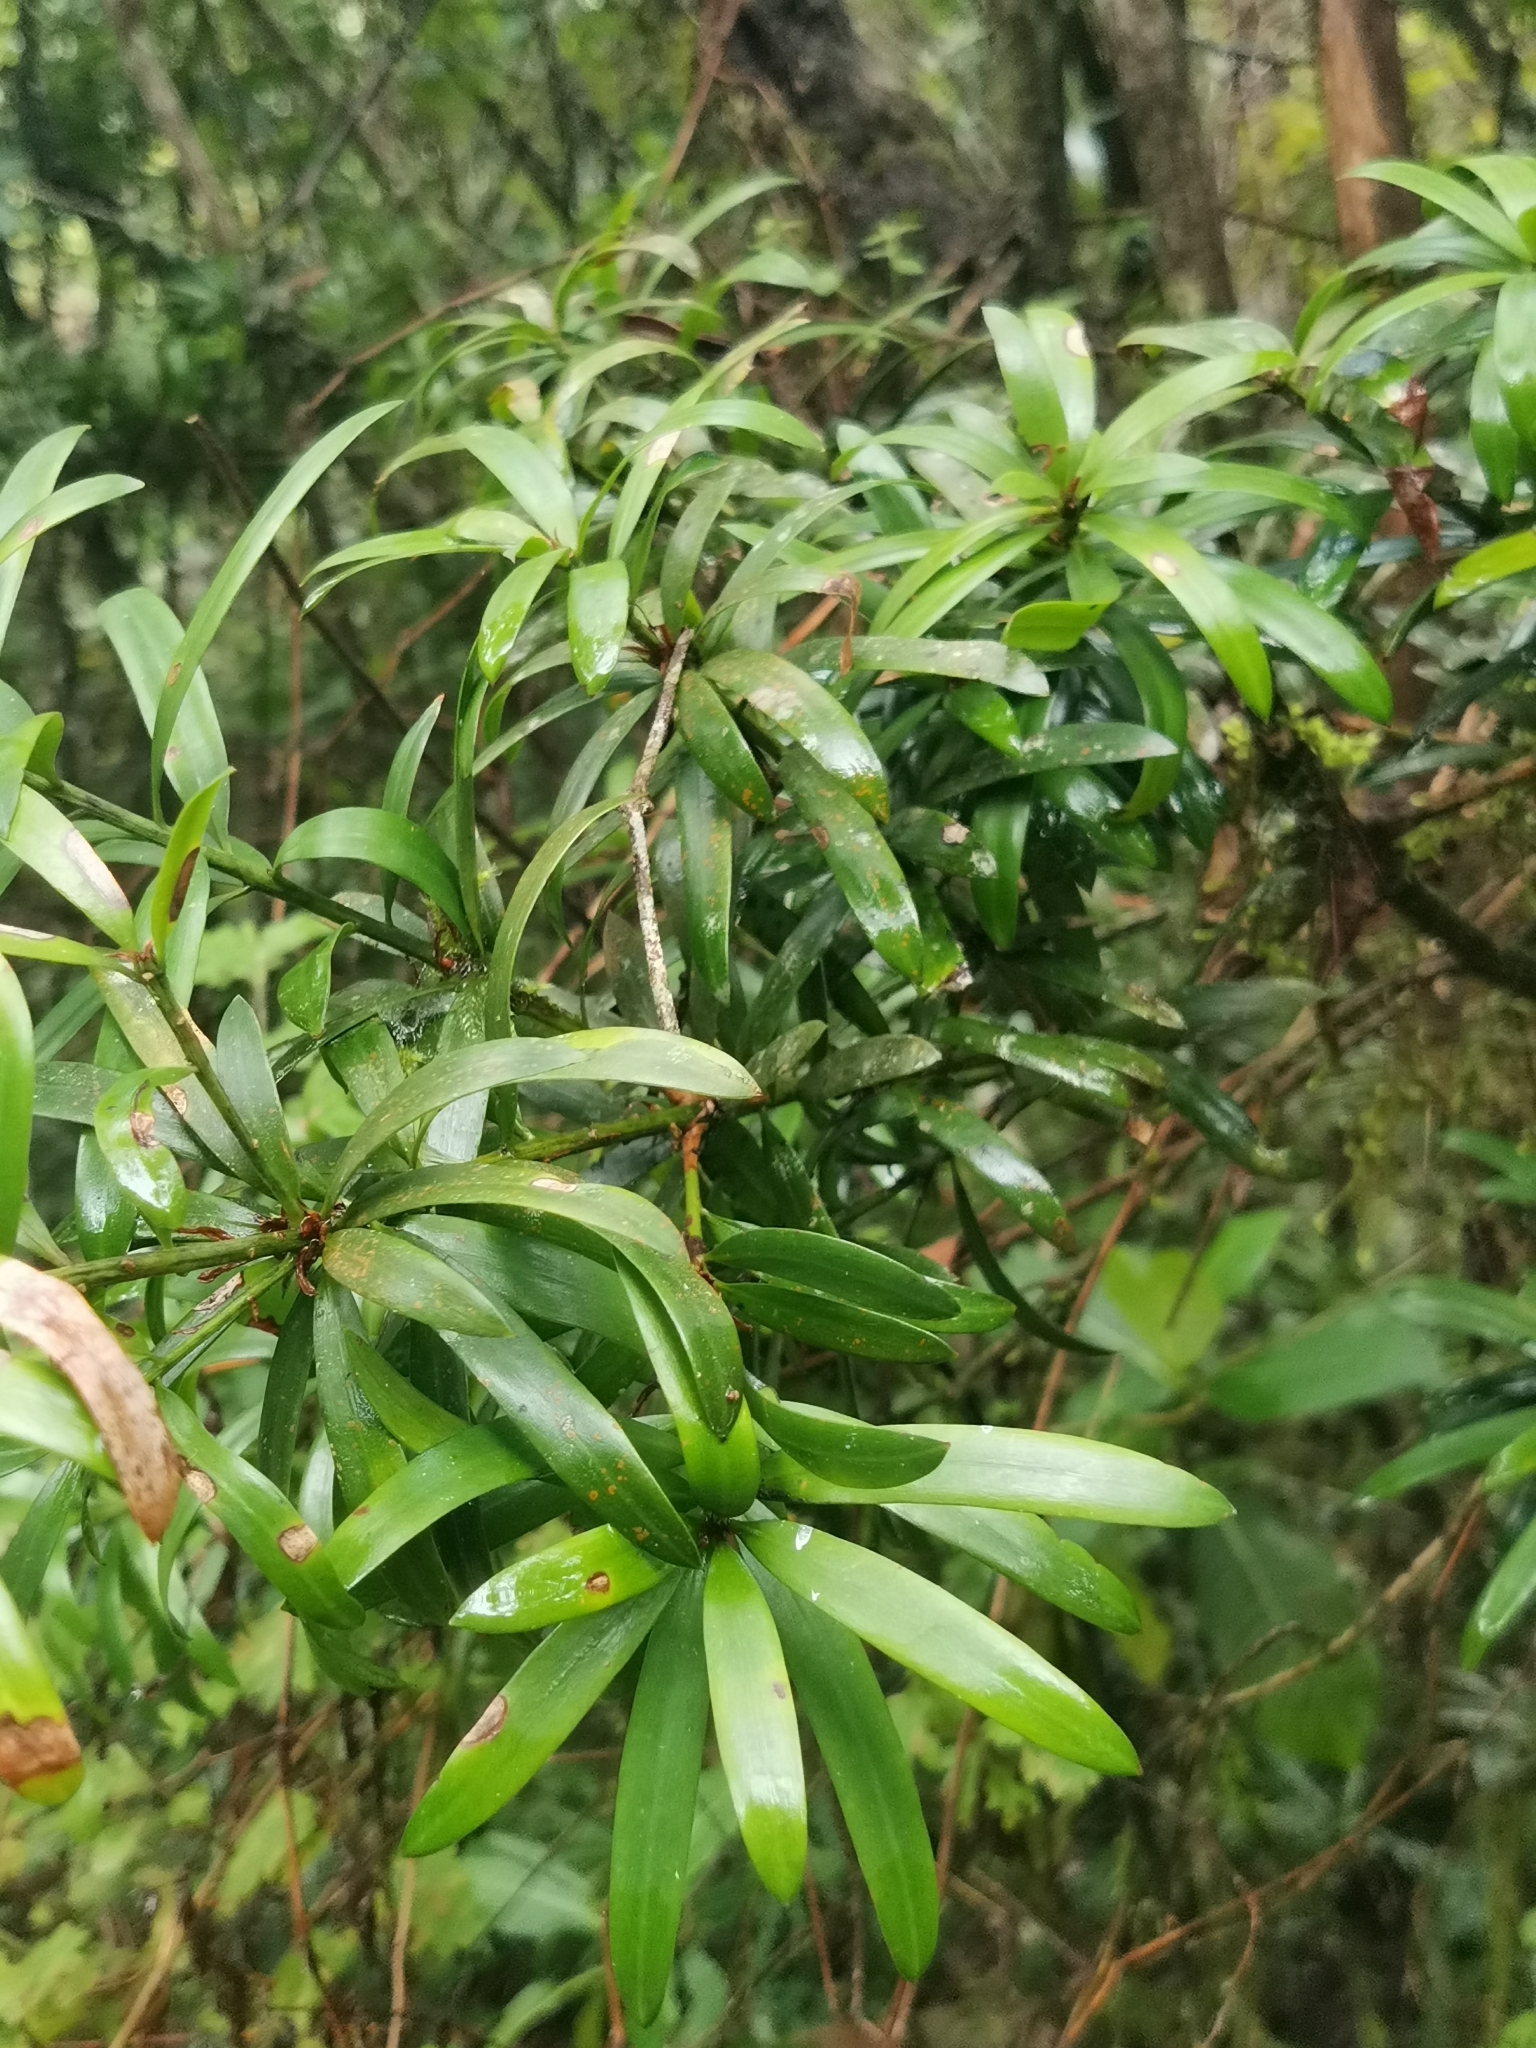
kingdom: Plantae
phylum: Tracheophyta
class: Pinopsida
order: Pinales
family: Podocarpaceae
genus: Podocarpus
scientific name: Podocarpus latifolius
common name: True yellowwood
